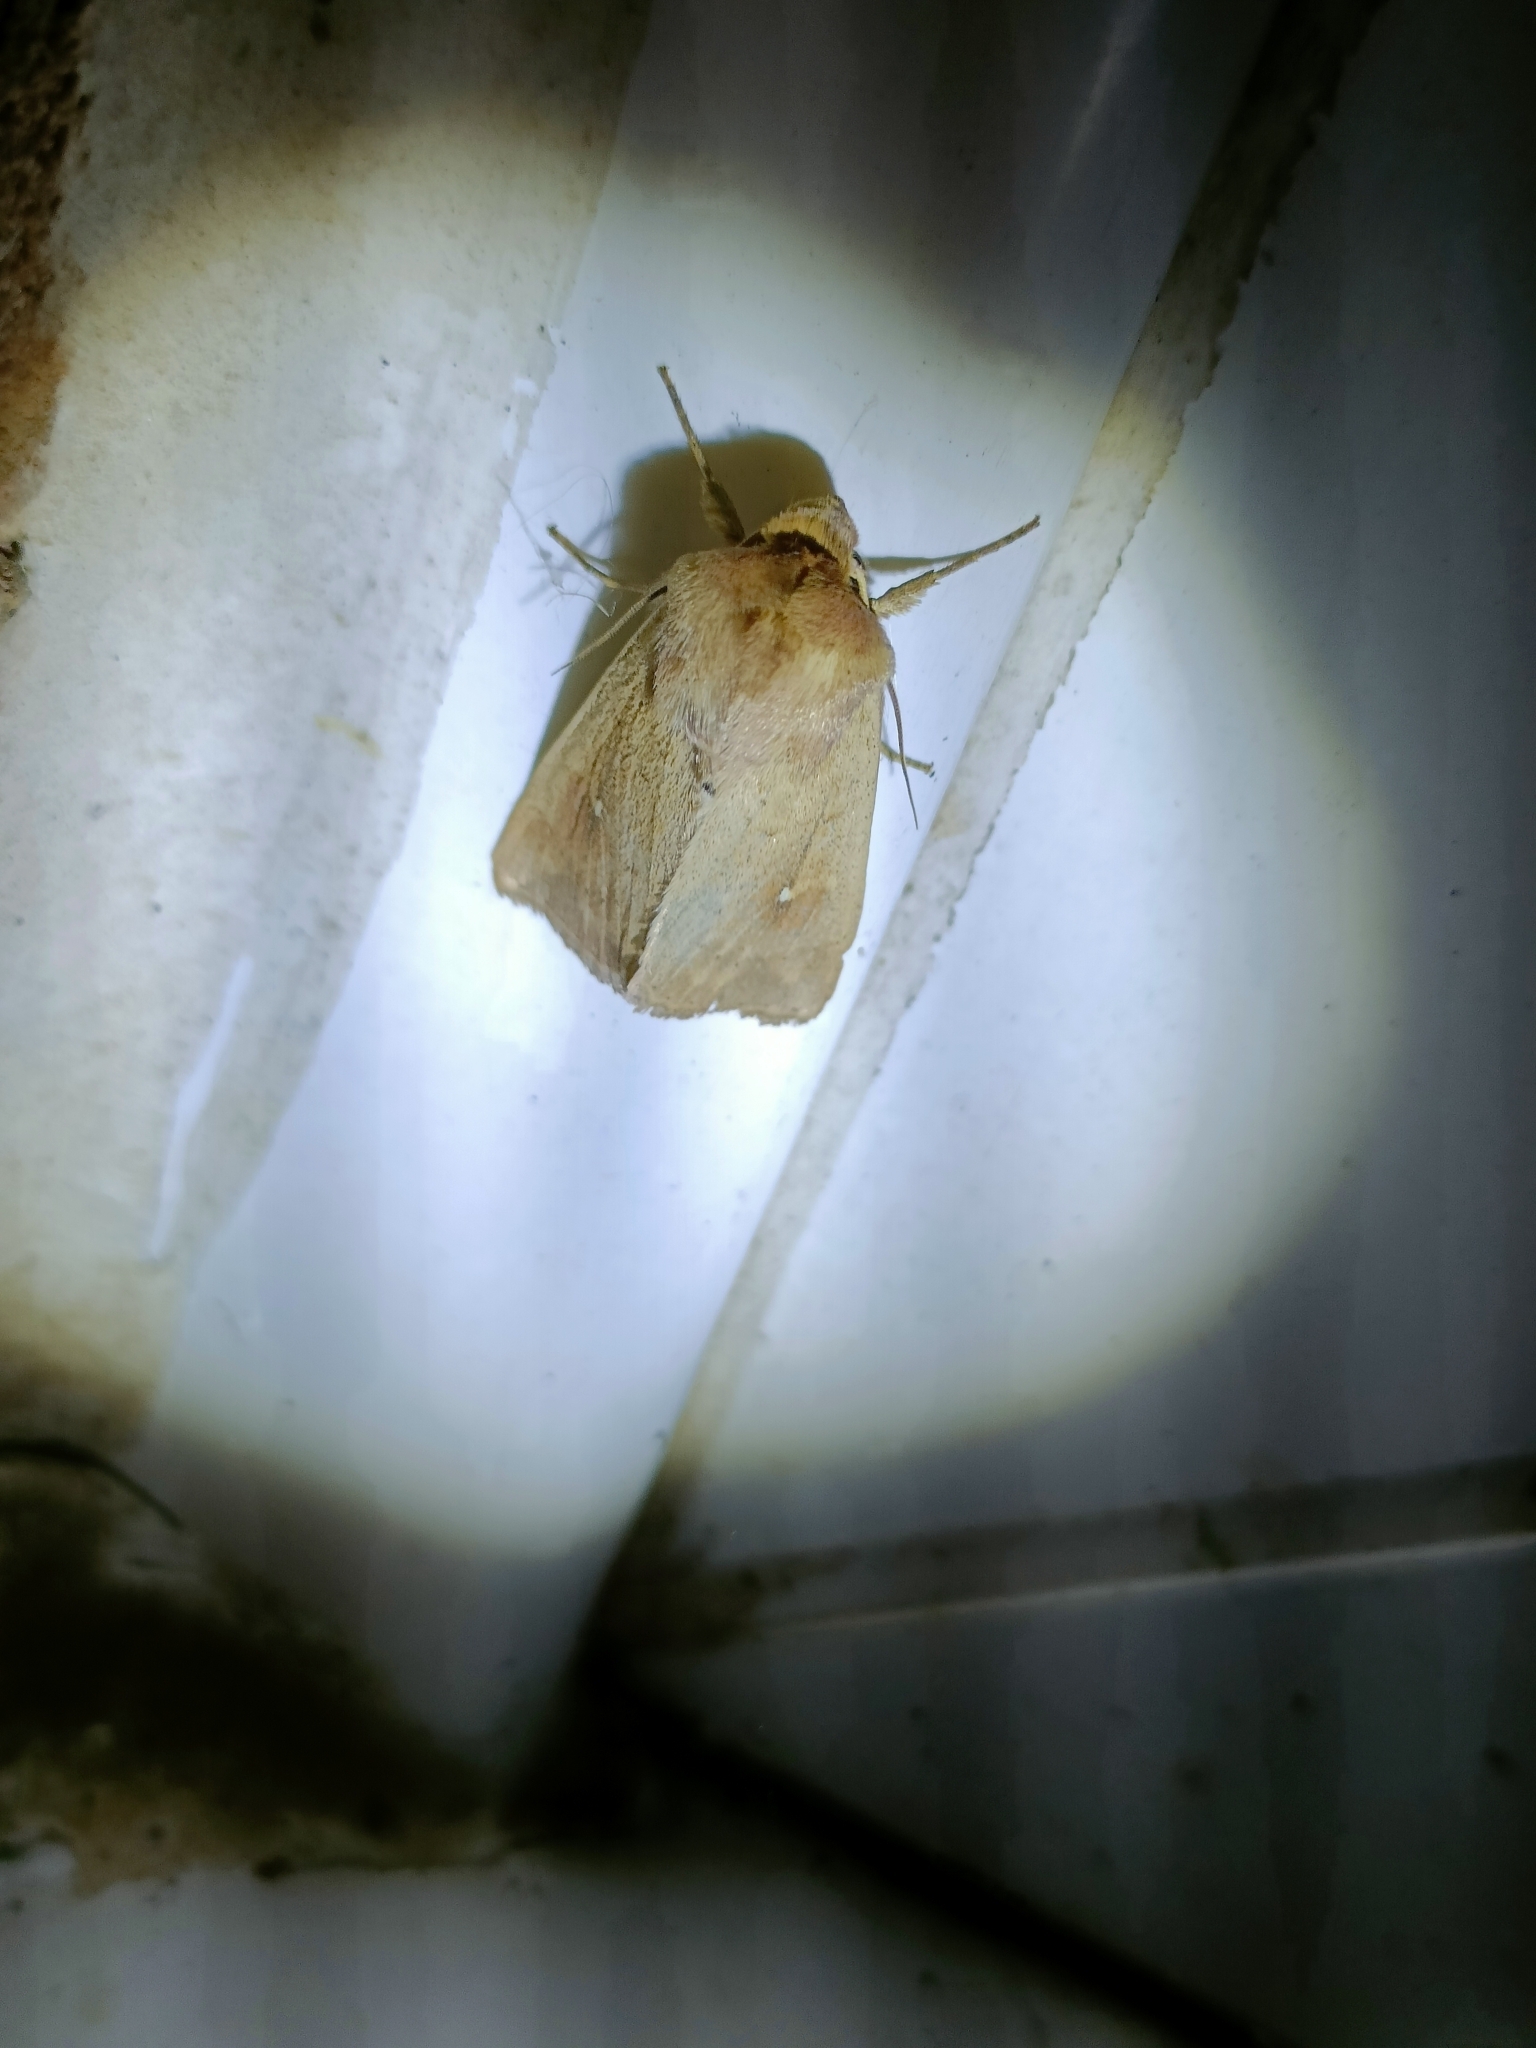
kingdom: Animalia
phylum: Arthropoda
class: Insecta
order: Lepidoptera
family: Noctuidae
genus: Mythimna
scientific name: Mythimna ferrago
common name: Clay
